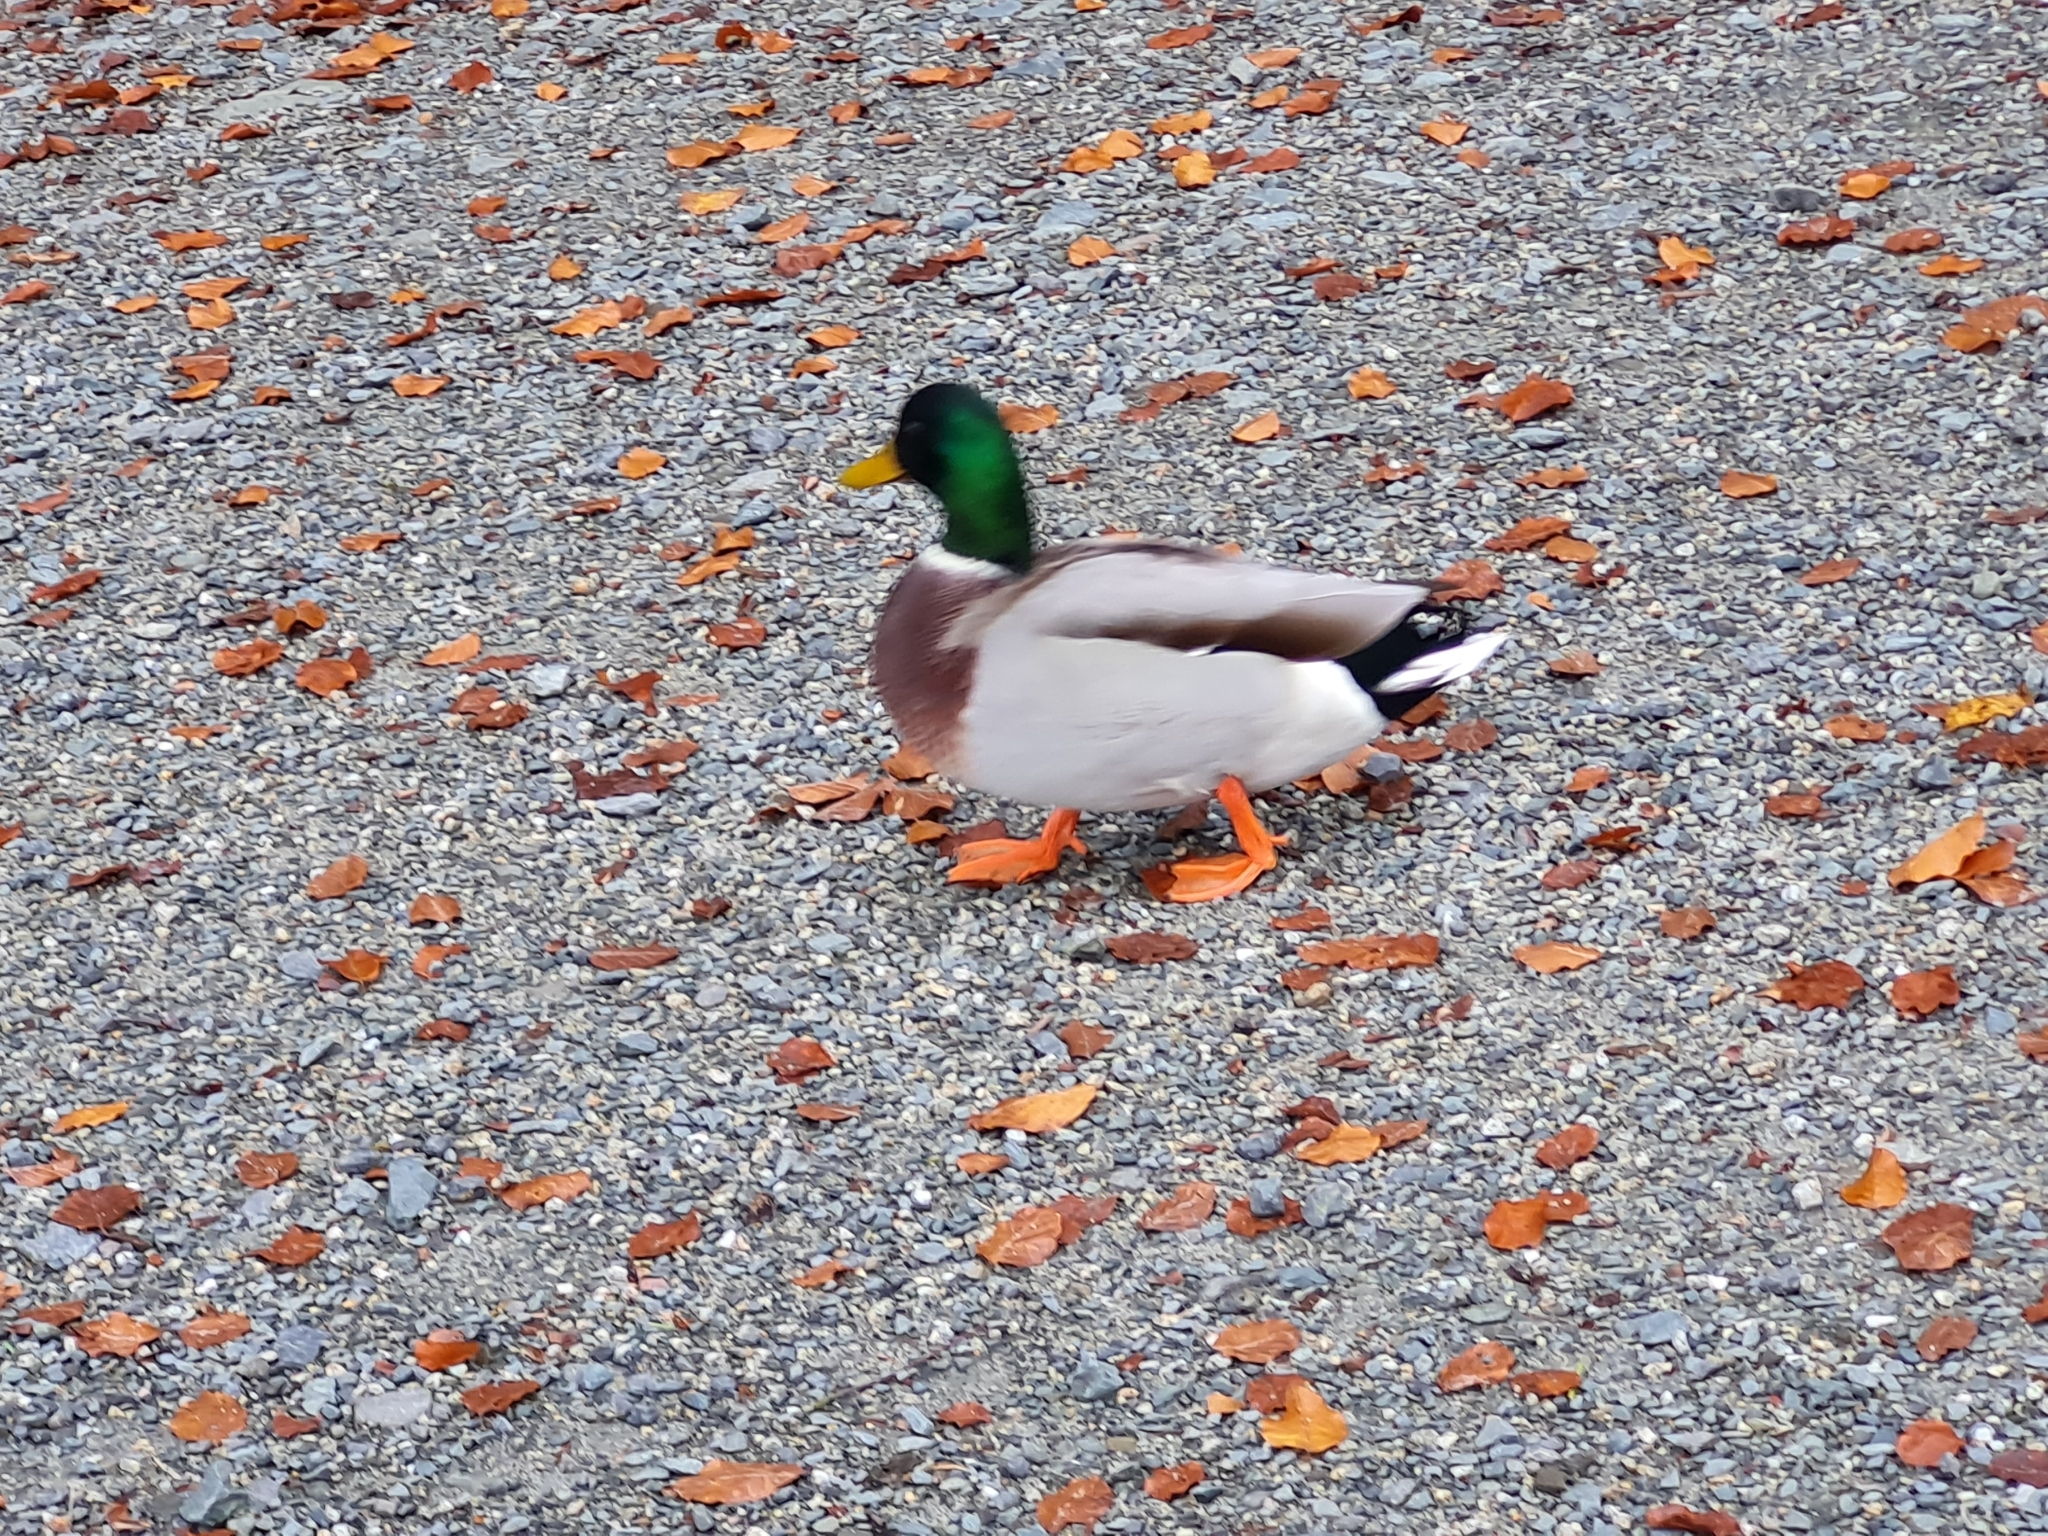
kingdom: Animalia
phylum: Chordata
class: Aves
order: Anseriformes
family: Anatidae
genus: Anas
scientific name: Anas platyrhynchos
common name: Mallard
